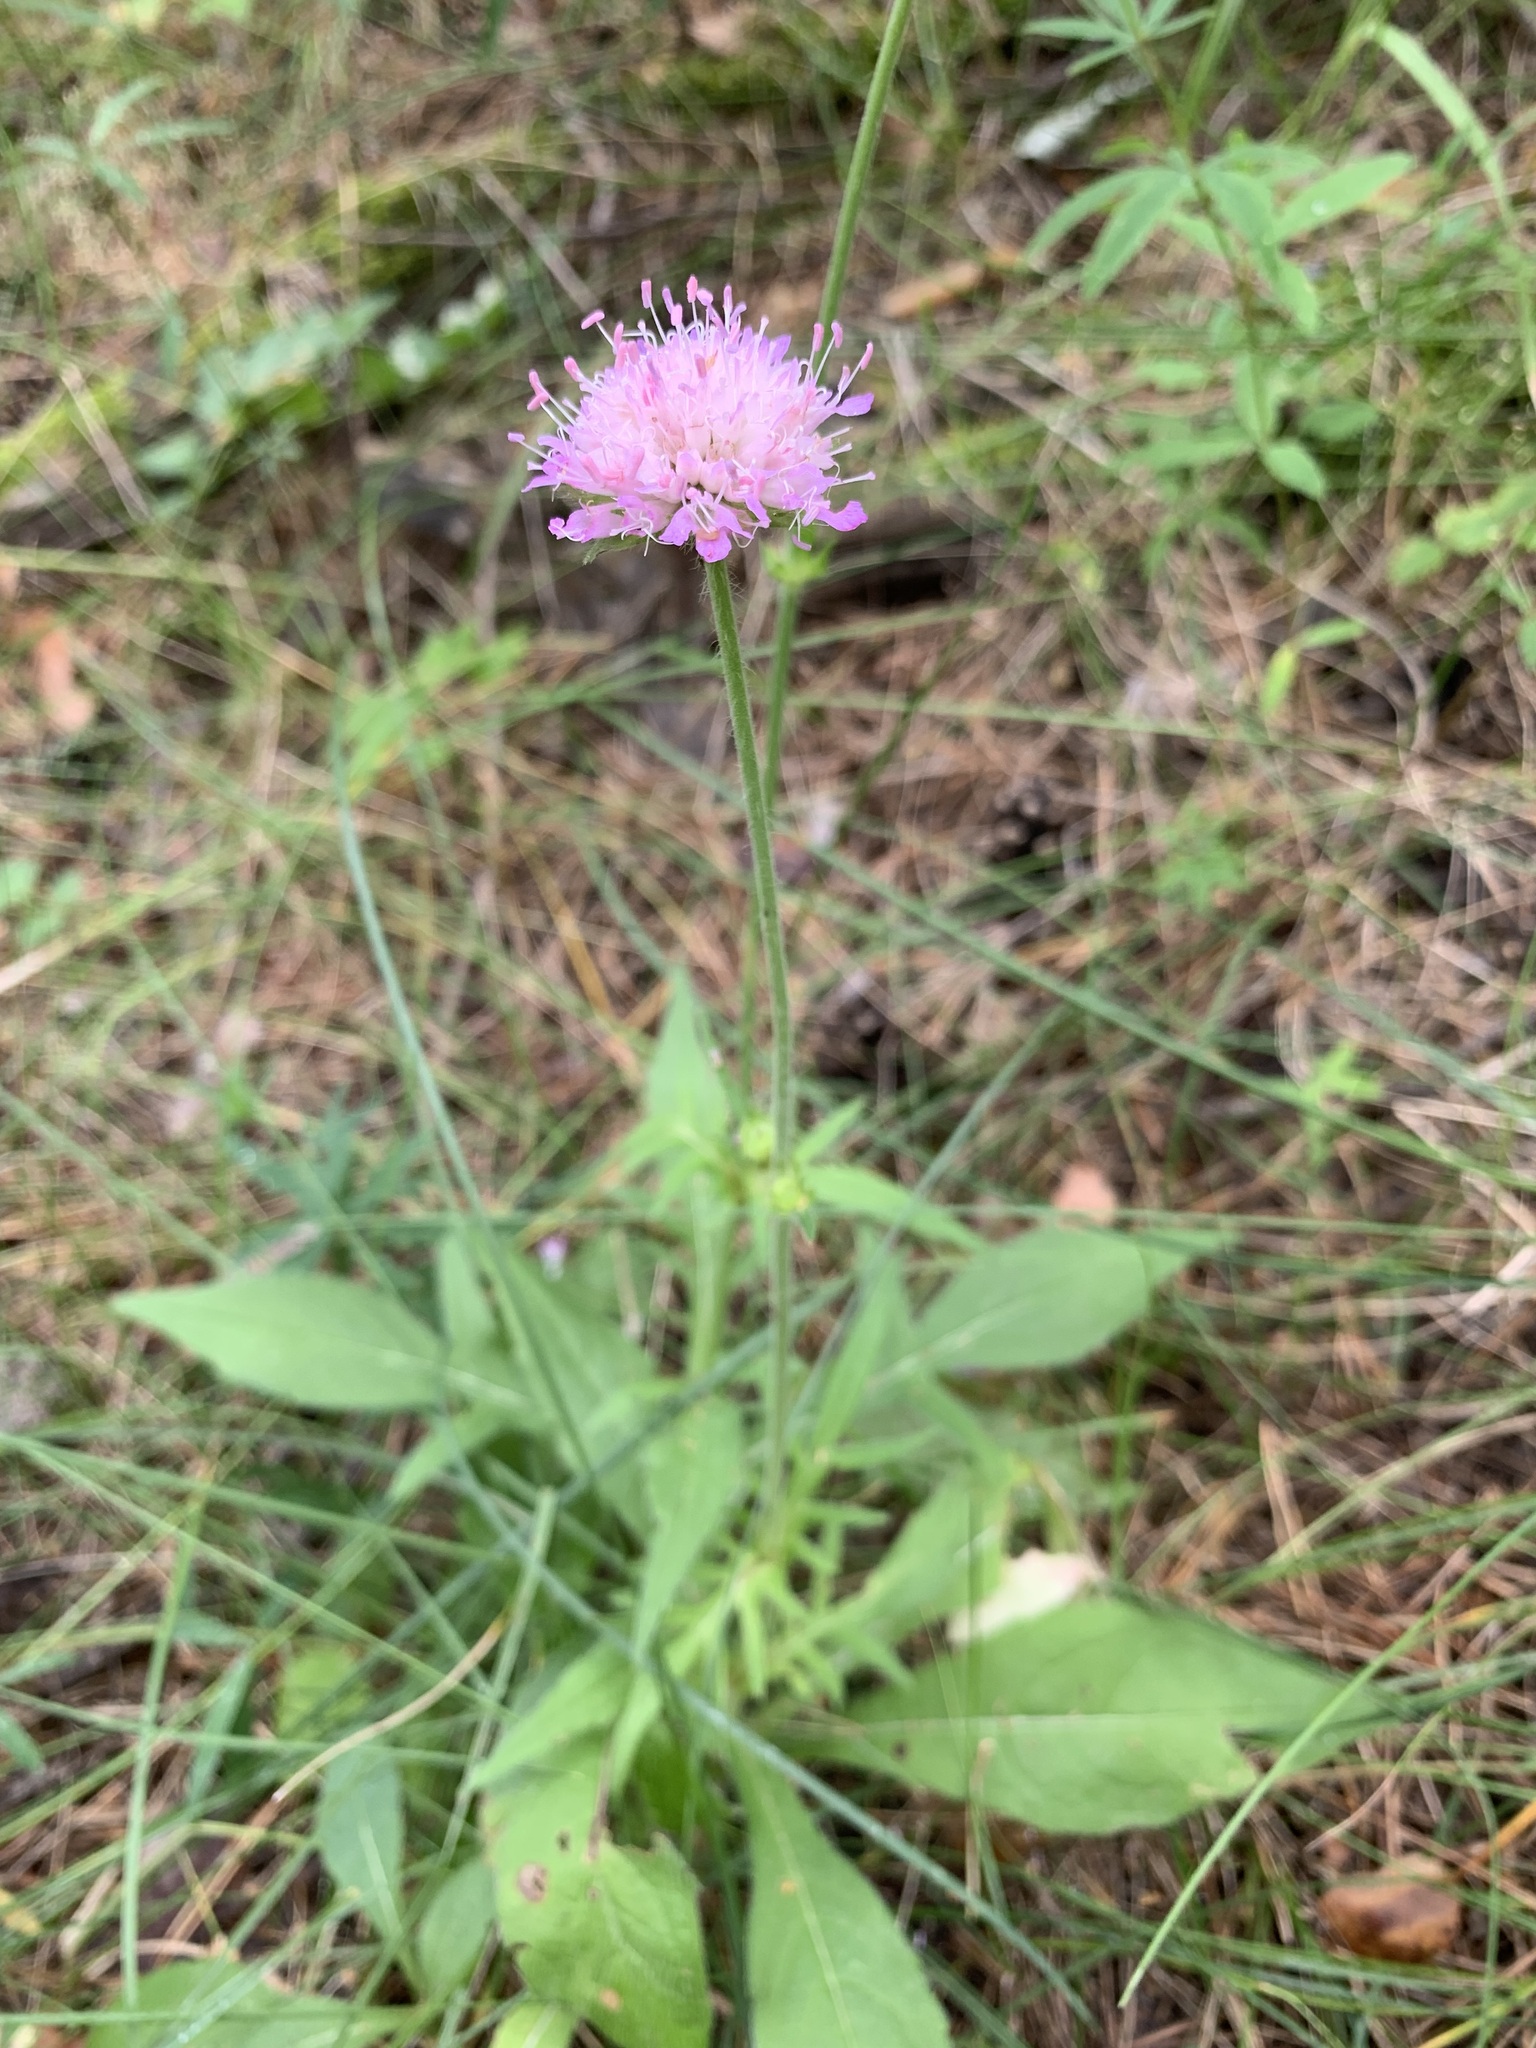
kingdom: Plantae
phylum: Tracheophyta
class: Magnoliopsida
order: Dipsacales
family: Caprifoliaceae
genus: Knautia
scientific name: Knautia arvensis
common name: Field scabiosa
